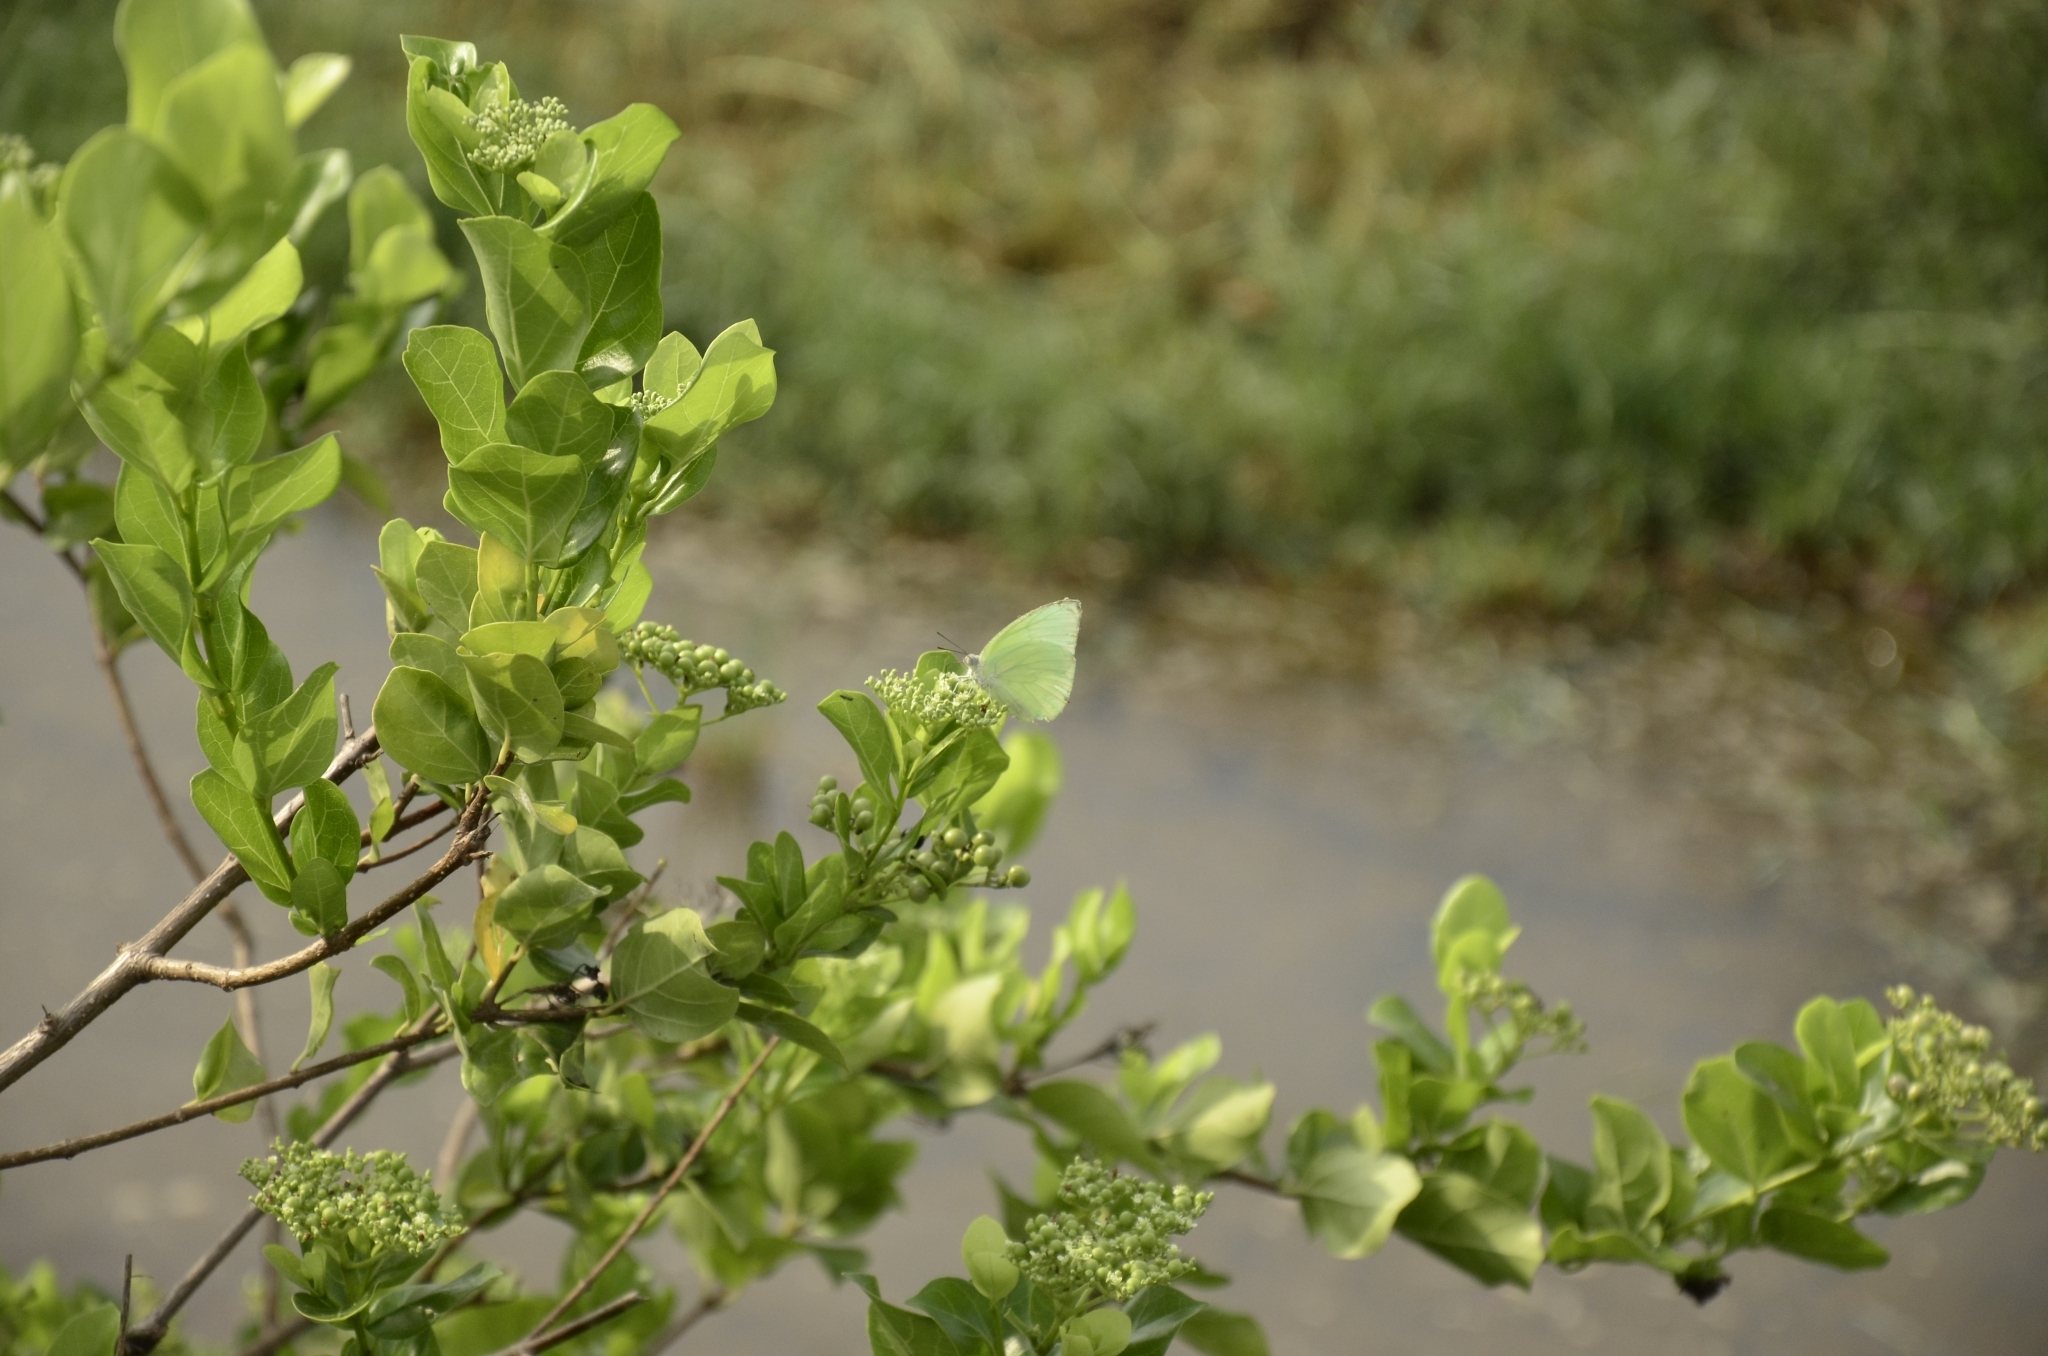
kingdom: Plantae
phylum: Tracheophyta
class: Magnoliopsida
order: Lamiales
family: Lamiaceae
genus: Premna
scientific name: Premna serratifolia
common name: Bastard guelder
